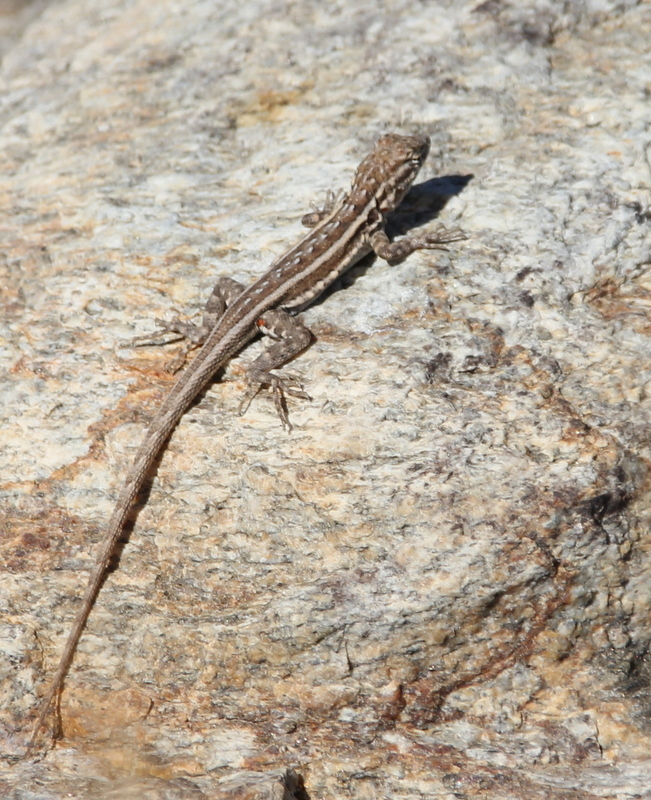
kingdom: Animalia
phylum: Chordata
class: Squamata
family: Phrynosomatidae
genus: Uta
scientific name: Uta stansburiana
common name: Side-blotched lizard
